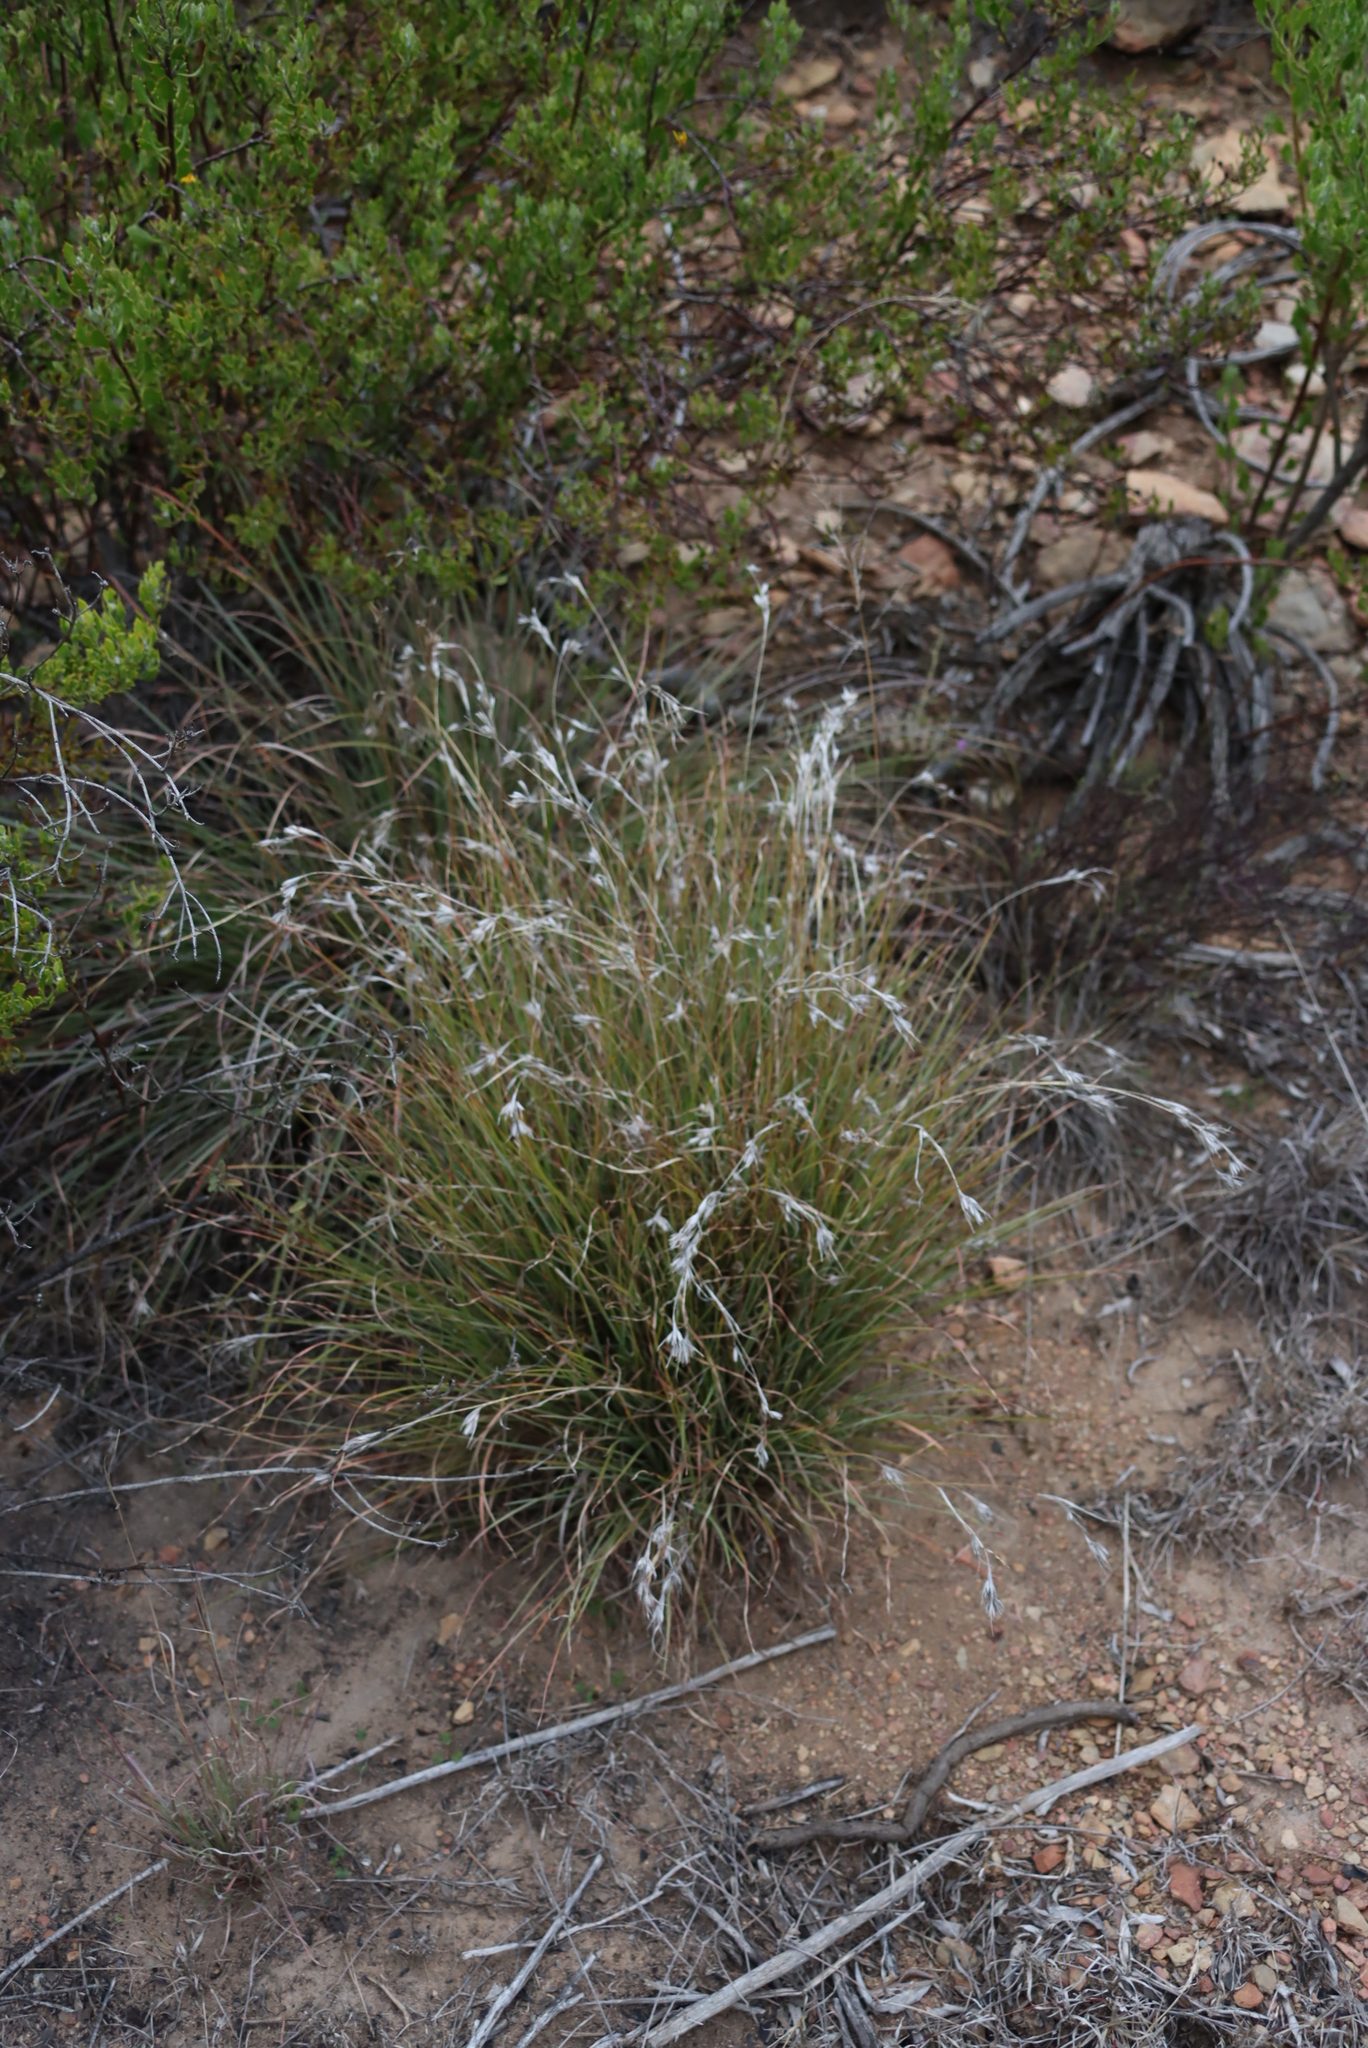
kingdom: Plantae
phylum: Tracheophyta
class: Liliopsida
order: Poales
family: Poaceae
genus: Themeda
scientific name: Themeda triandra
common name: Kangaroo grass
